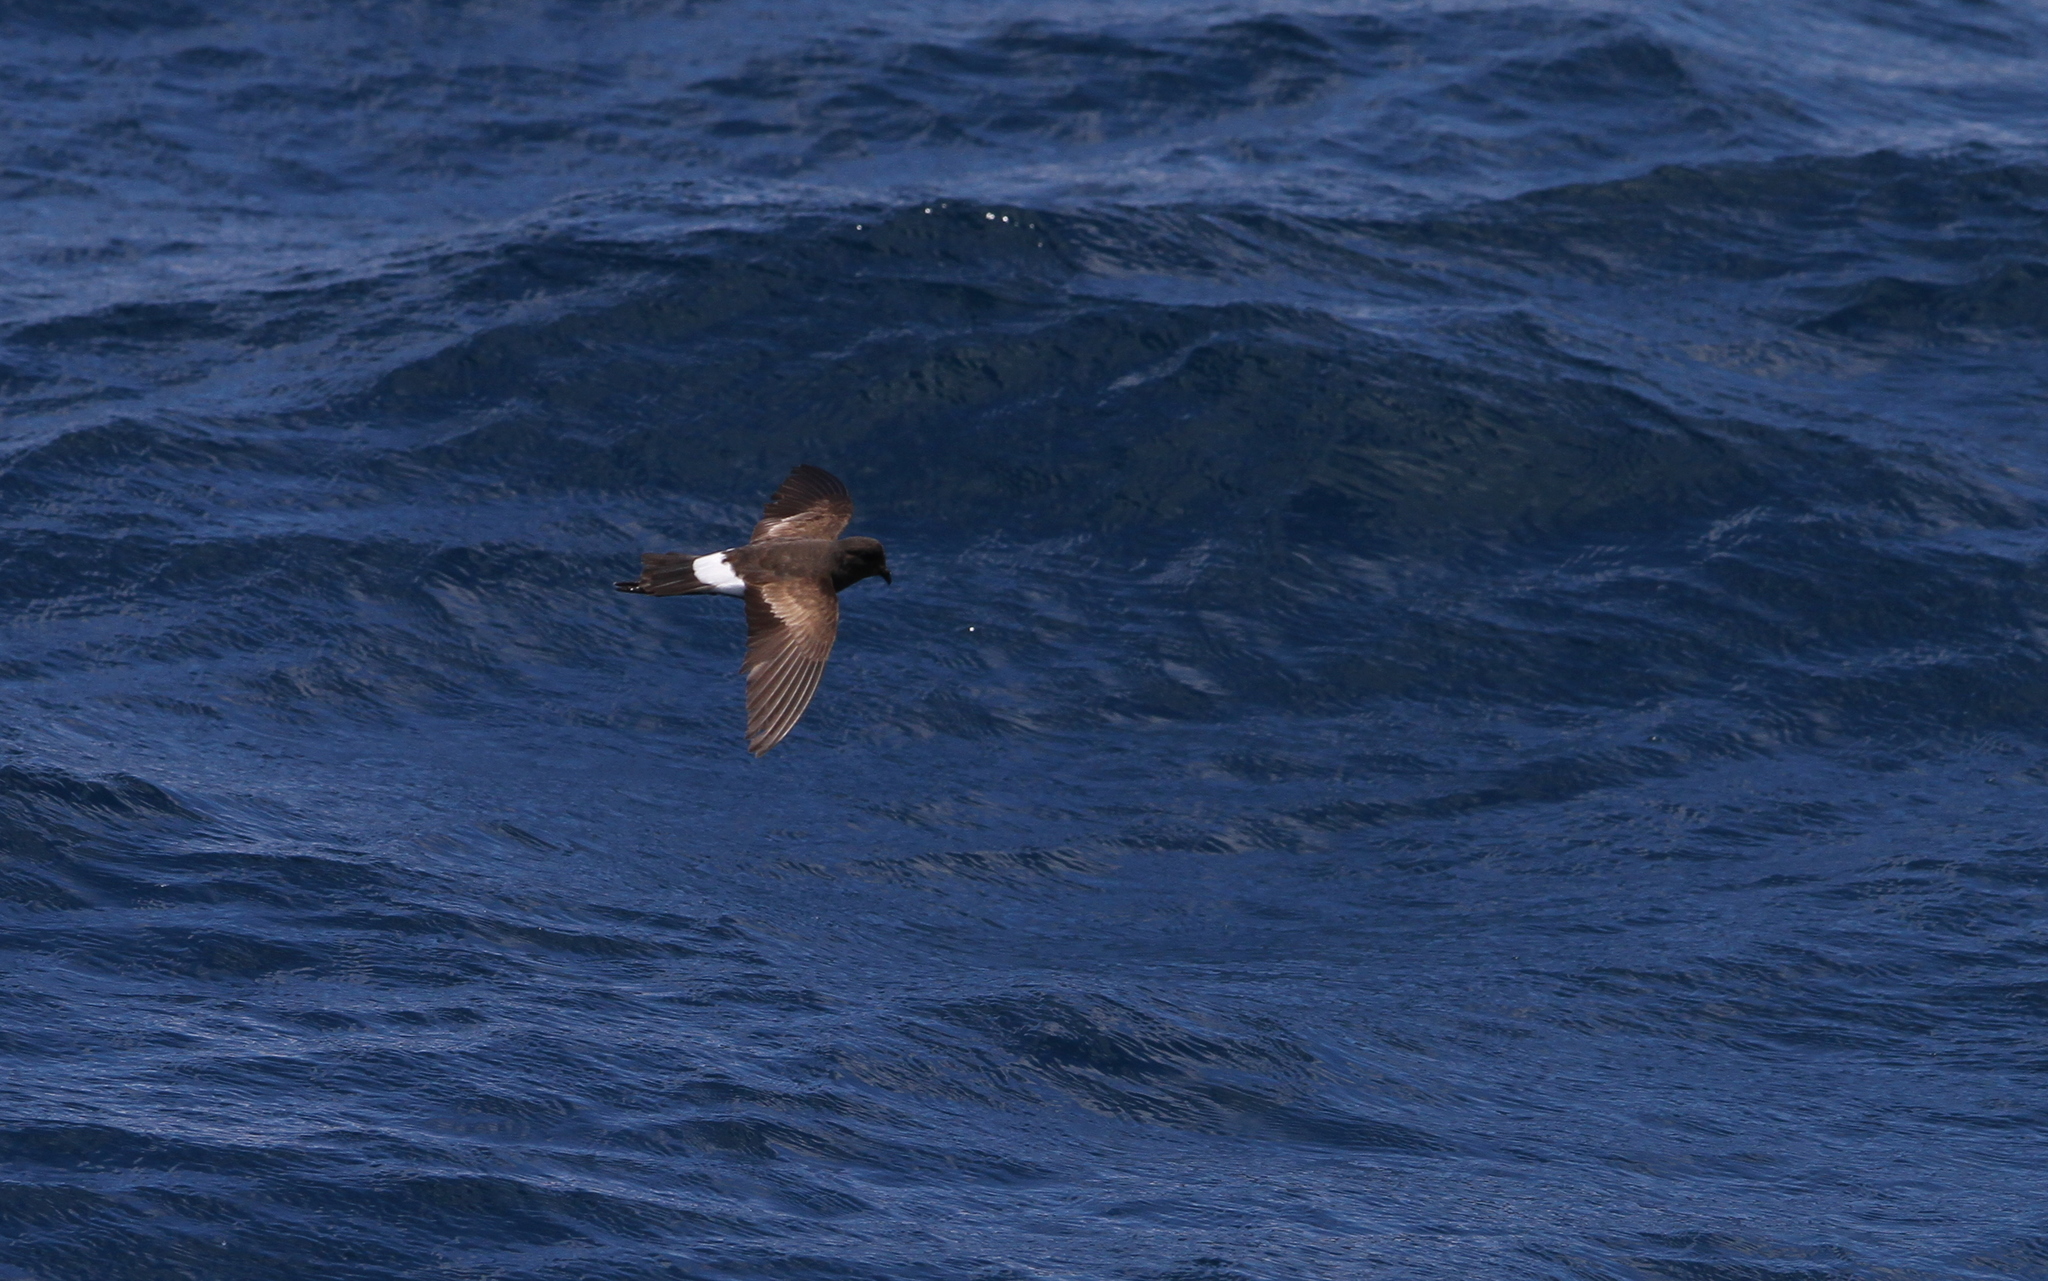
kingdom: Animalia
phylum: Chordata
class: Aves
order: Procellariiformes
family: Hydrobatidae
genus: Oceanites
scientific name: Oceanites oceanicus
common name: Wilson's storm petrel
